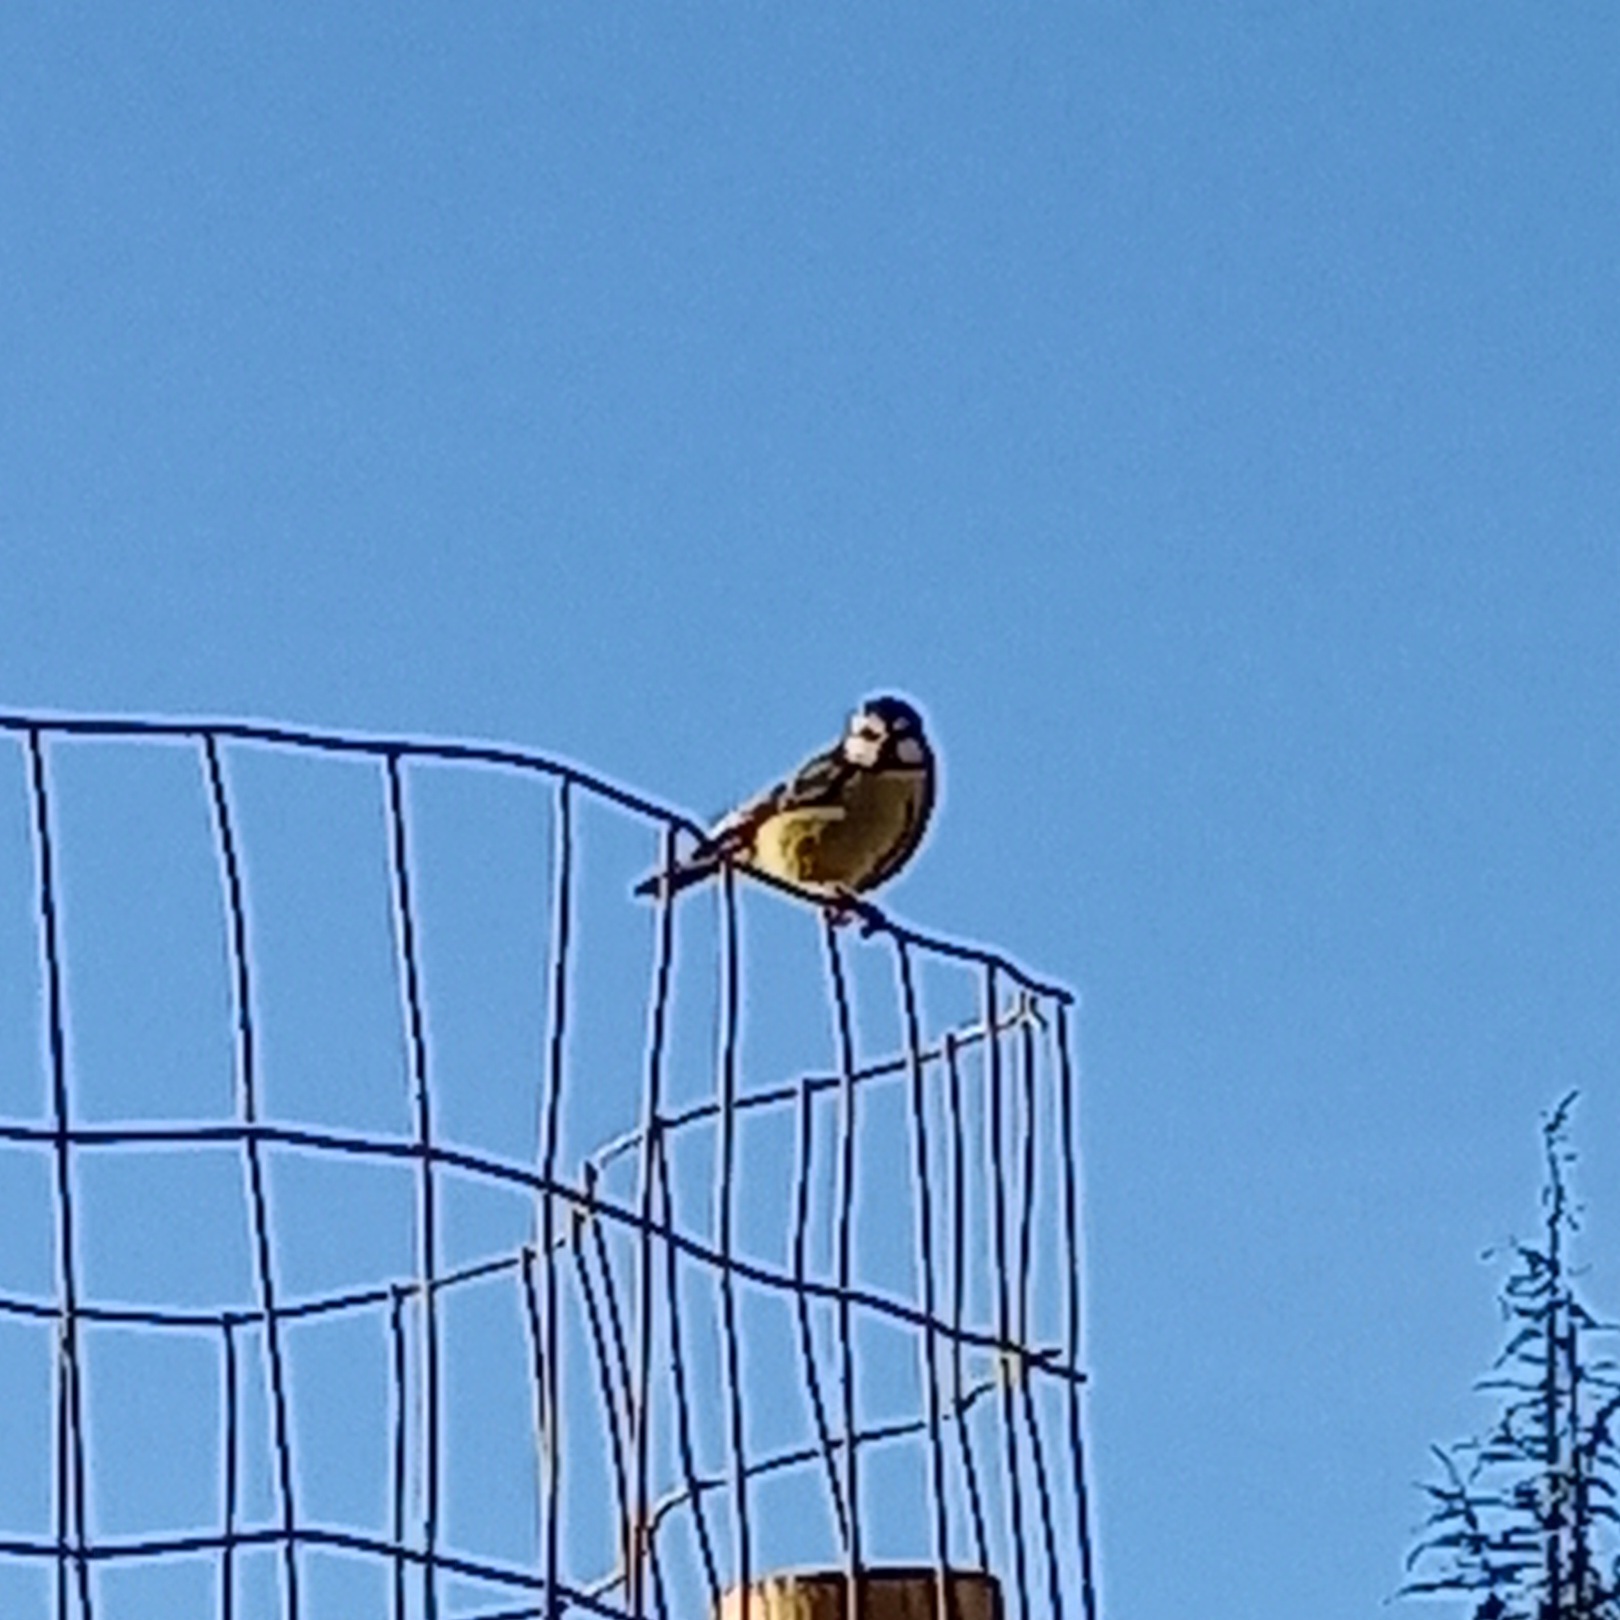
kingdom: Animalia
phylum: Chordata
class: Aves
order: Passeriformes
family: Paridae
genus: Cyanistes
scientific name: Cyanistes caeruleus
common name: Eurasian blue tit
